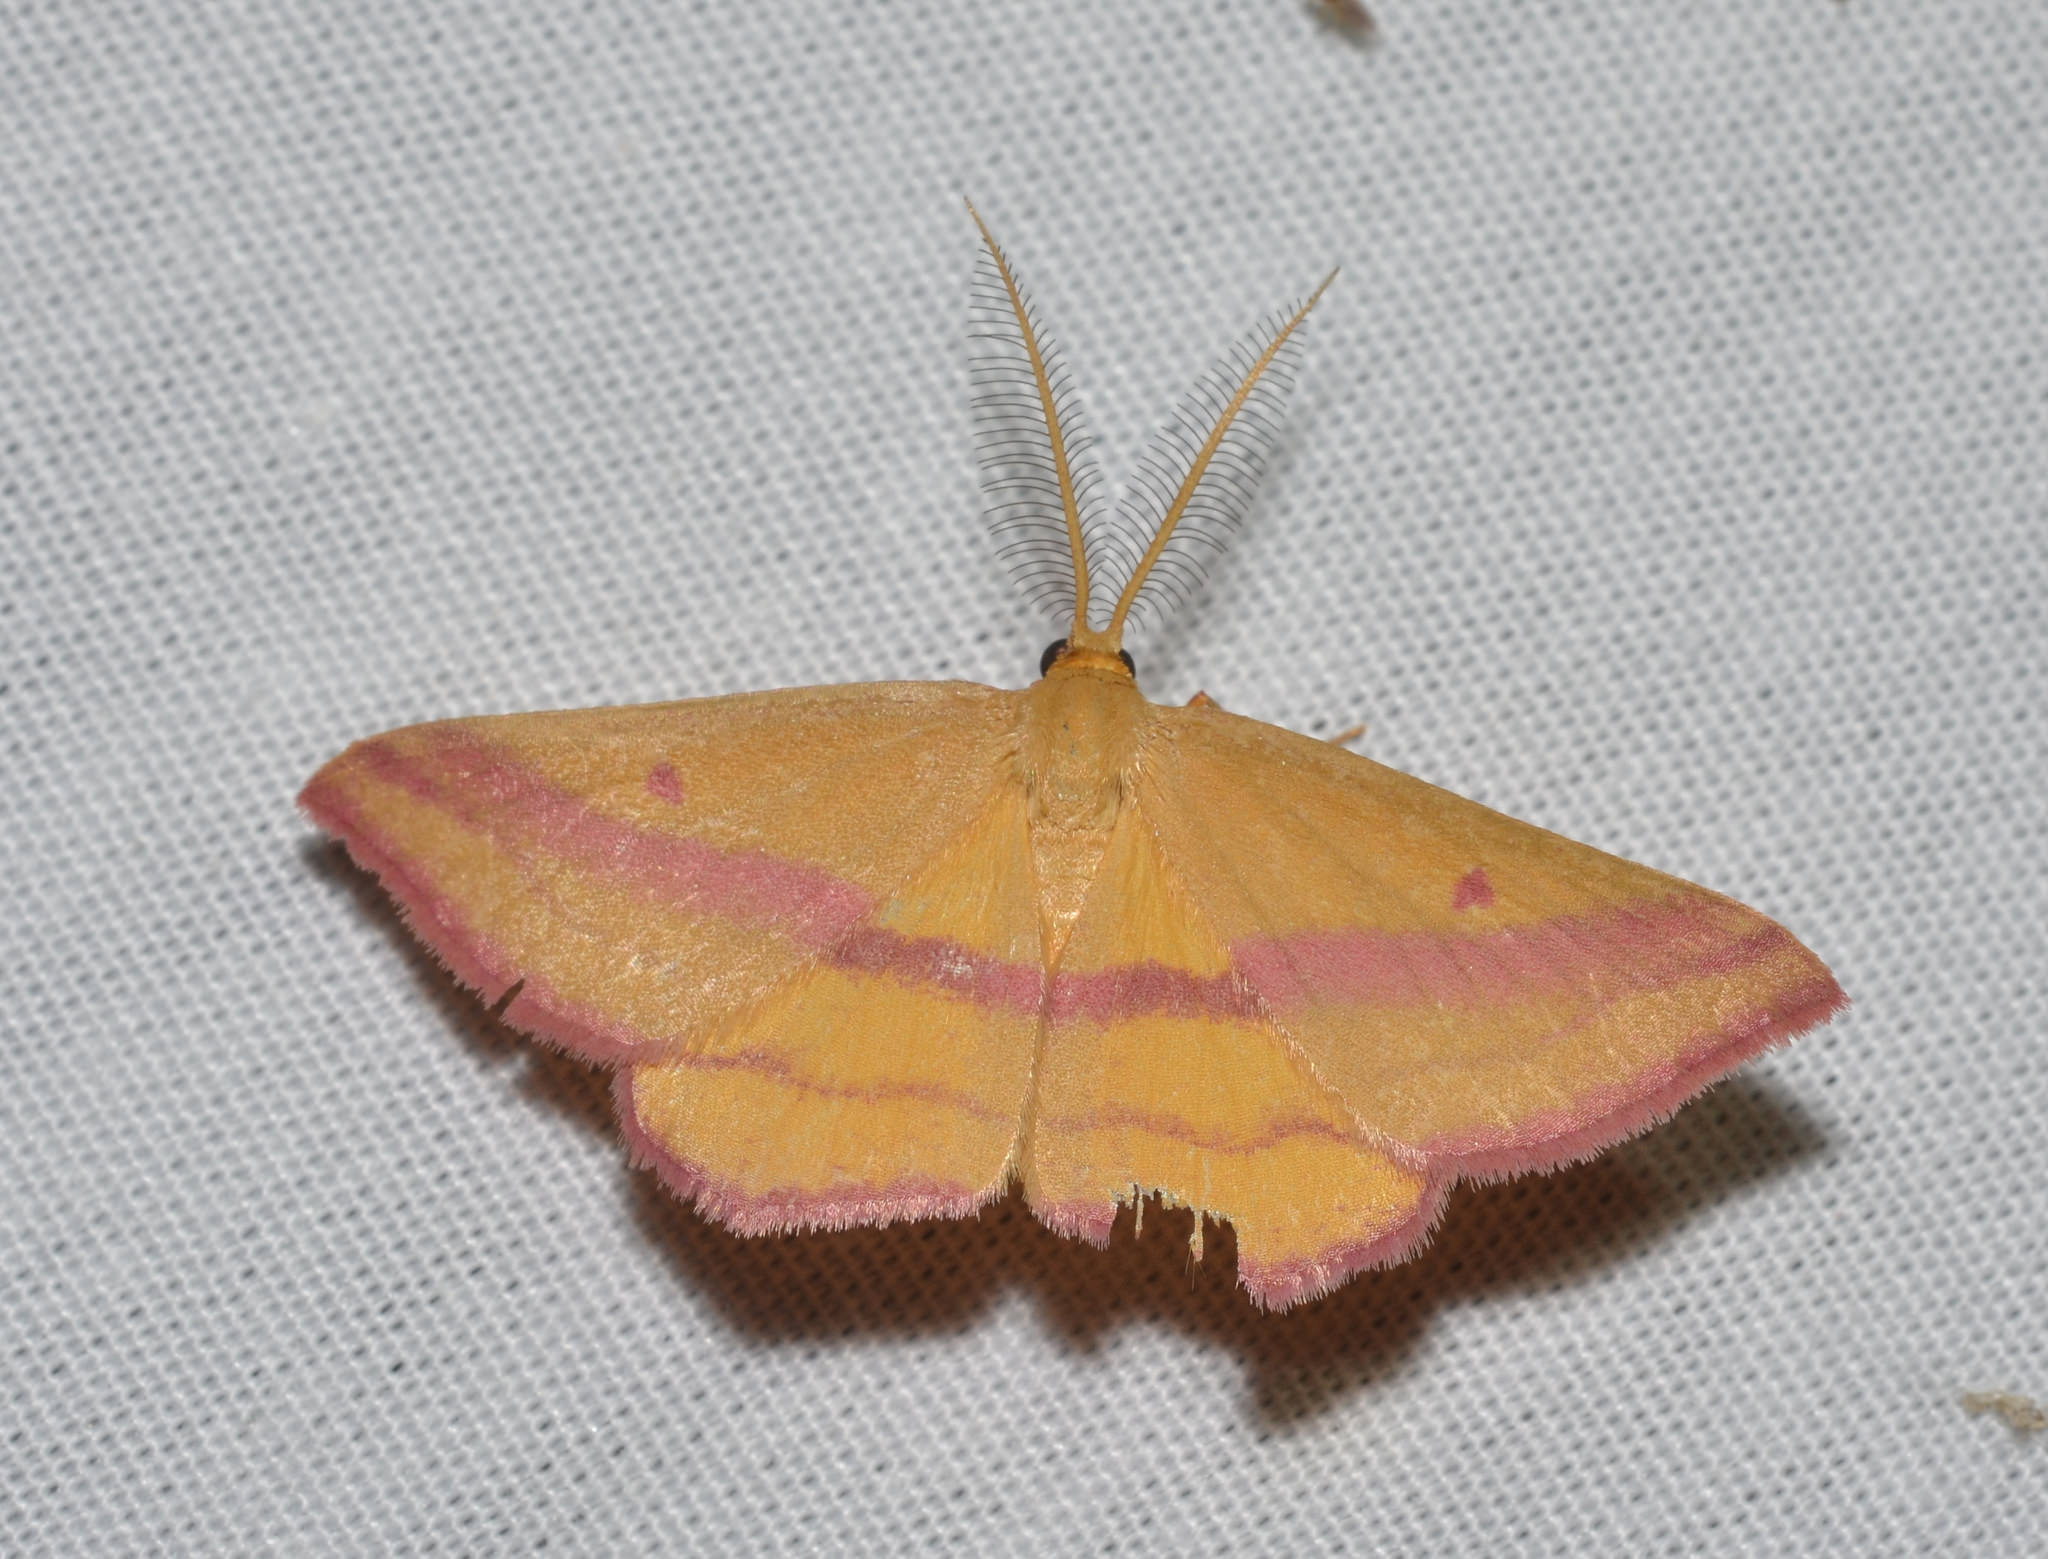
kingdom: Animalia
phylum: Arthropoda
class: Insecta
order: Lepidoptera
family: Geometridae
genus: Haematopis
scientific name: Haematopis grataria
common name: Chickweed geometer
